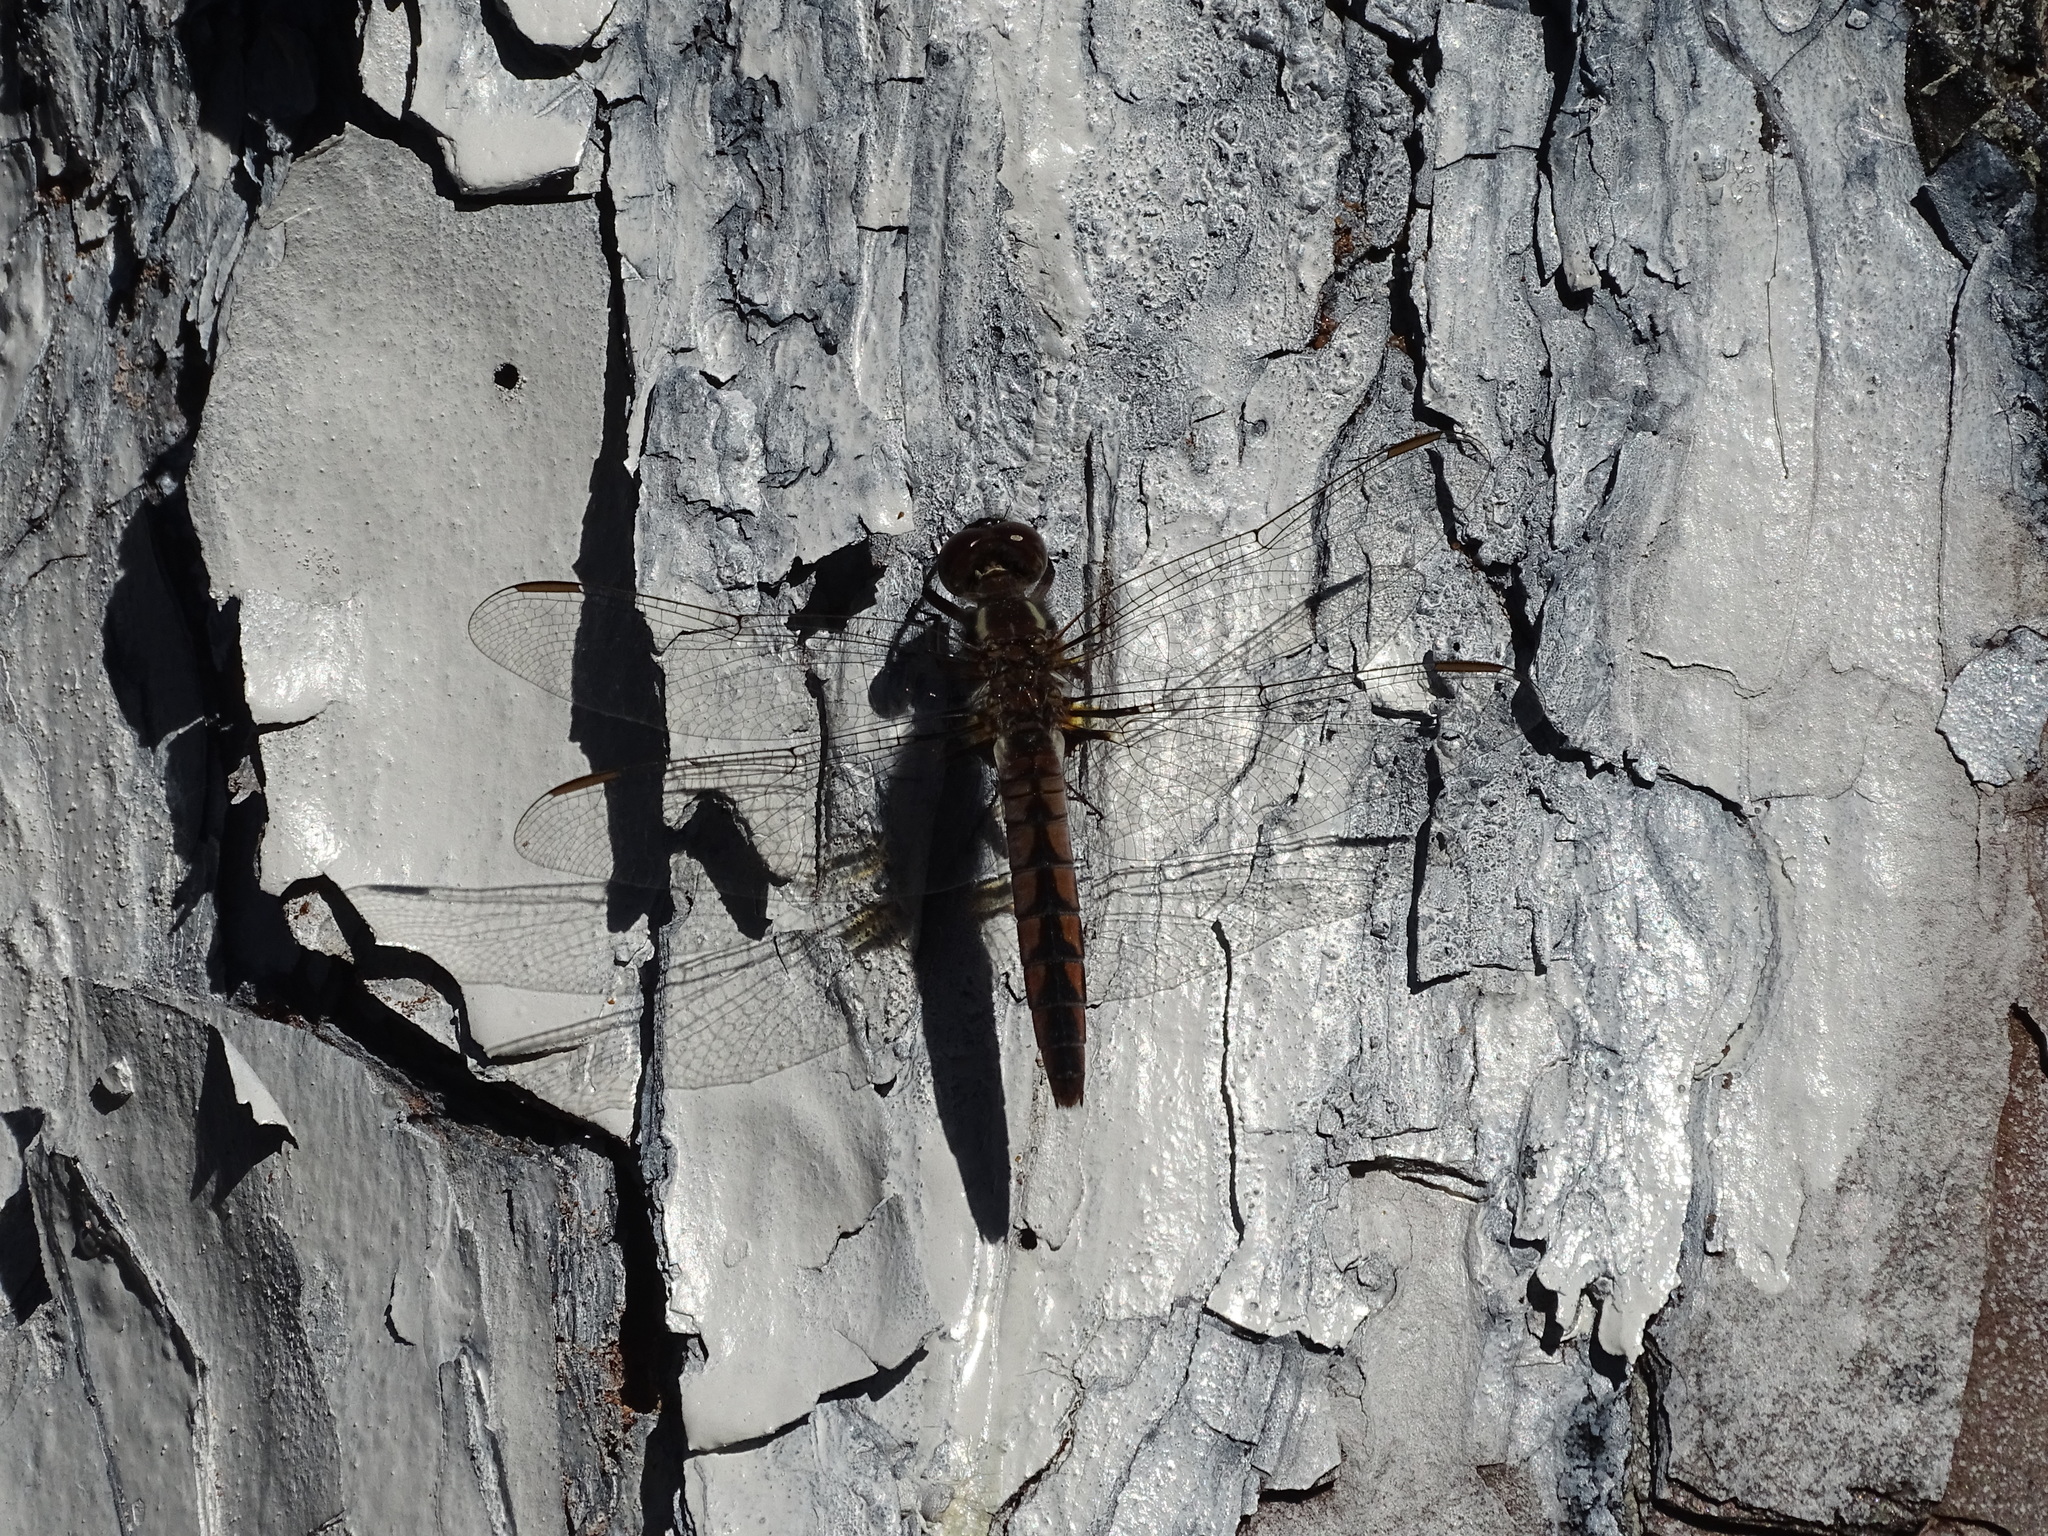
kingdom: Animalia
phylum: Arthropoda
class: Insecta
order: Odonata
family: Libellulidae
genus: Ladona
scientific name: Ladona deplanata
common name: Blue corporal
